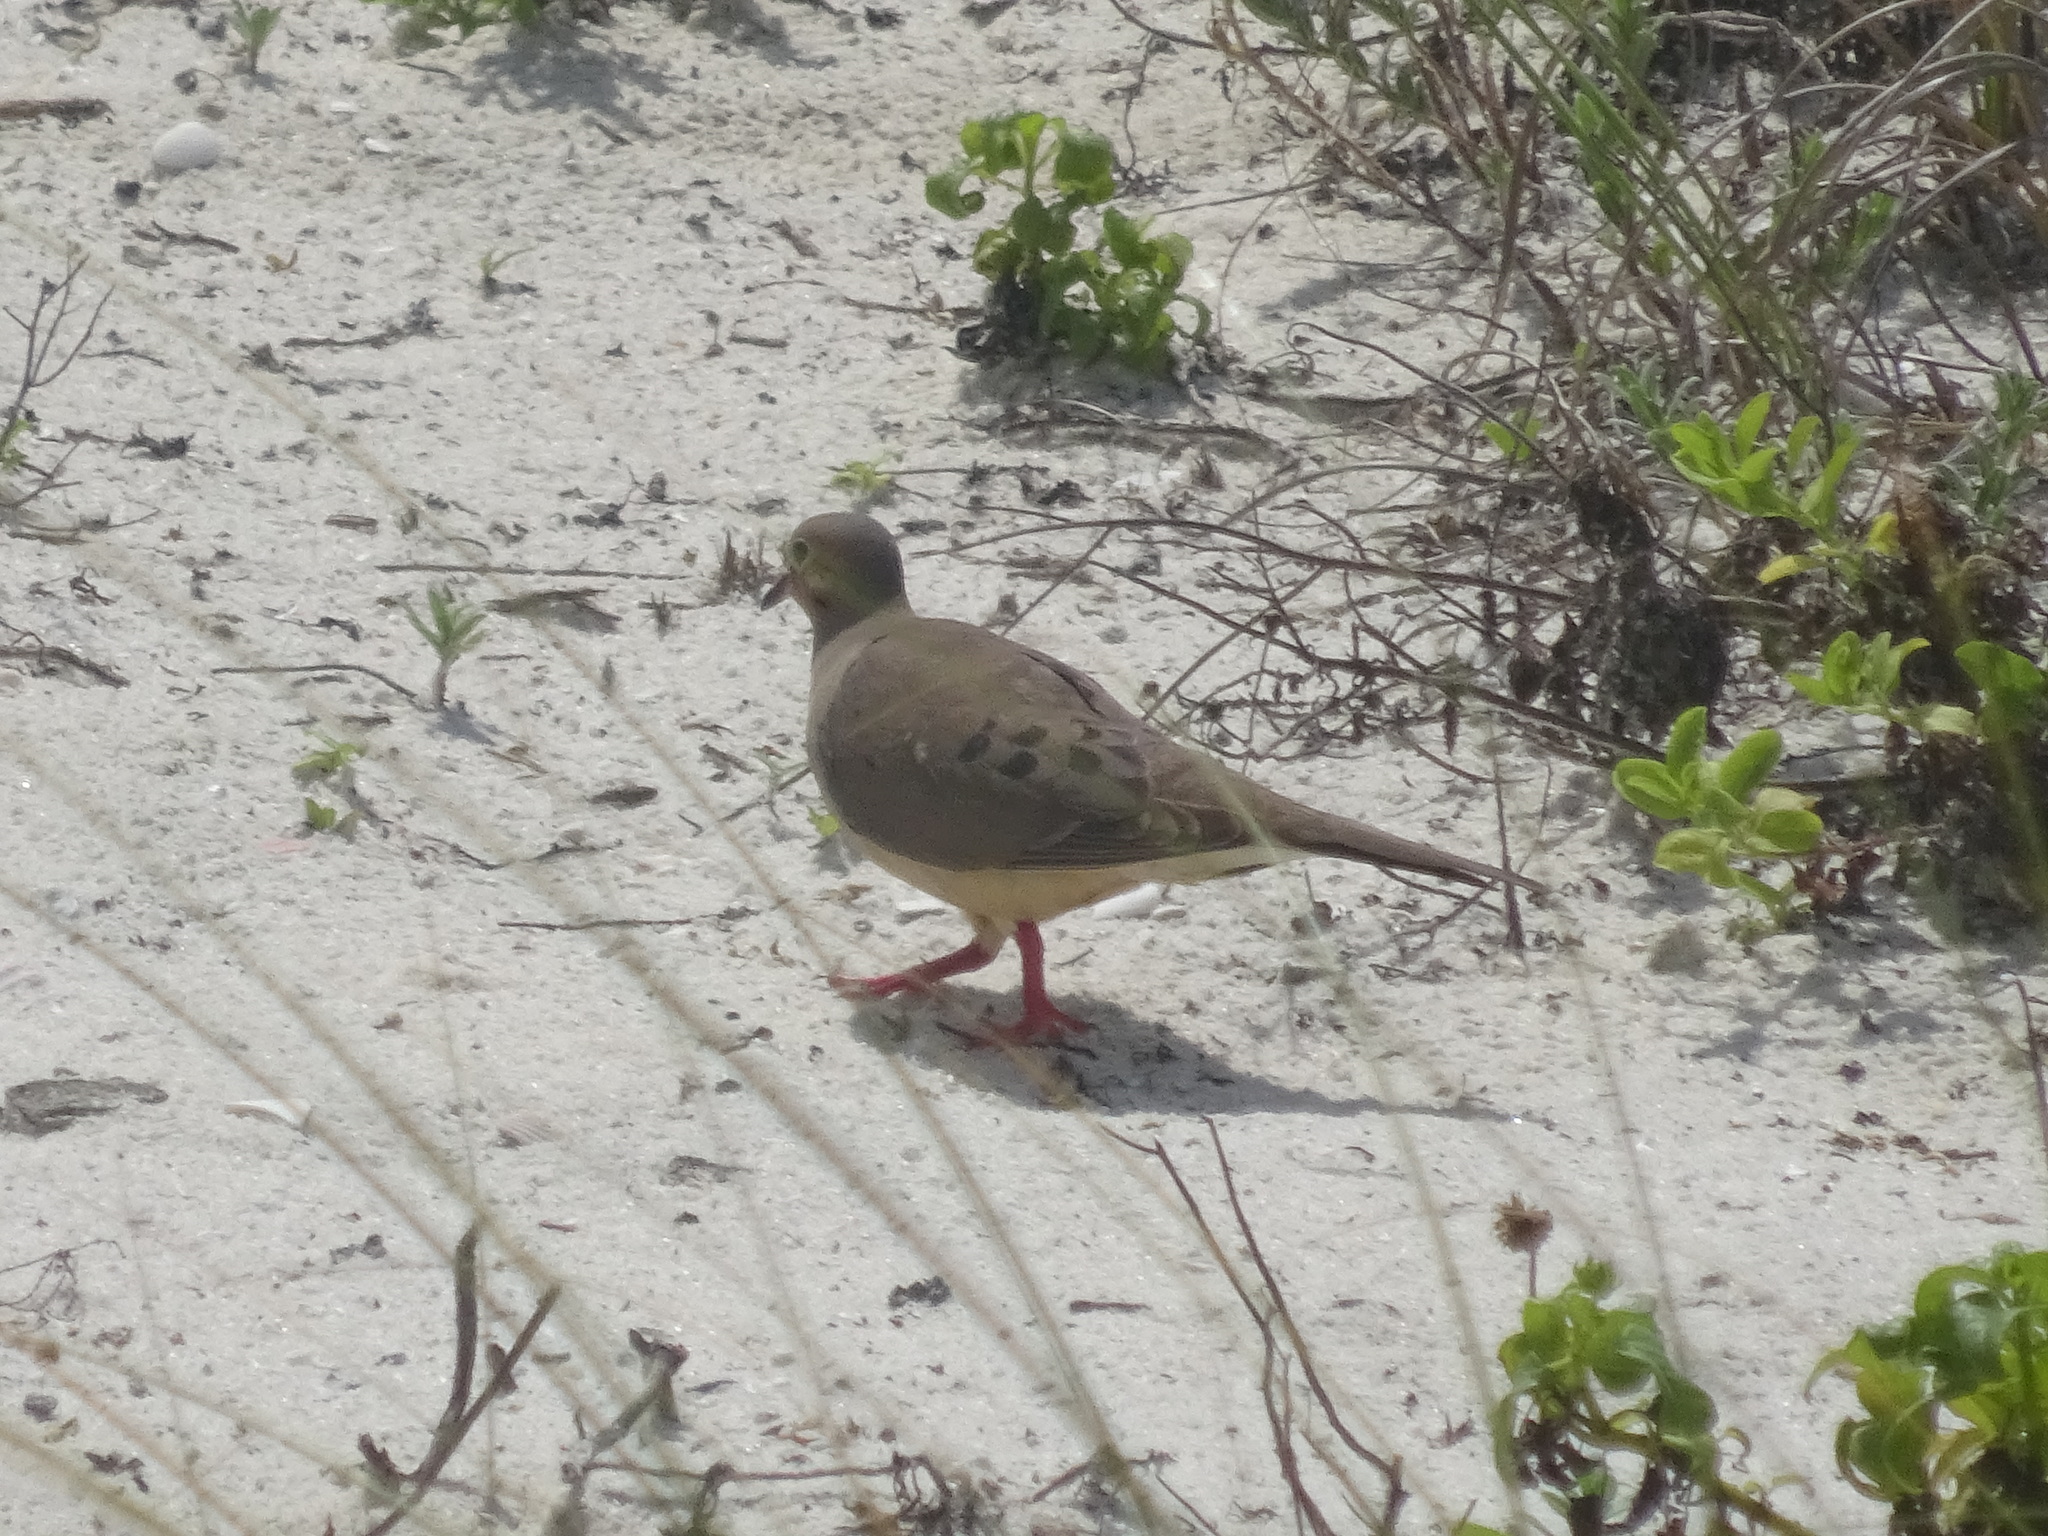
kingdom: Animalia
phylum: Chordata
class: Aves
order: Columbiformes
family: Columbidae
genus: Zenaida
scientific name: Zenaida macroura
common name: Mourning dove
